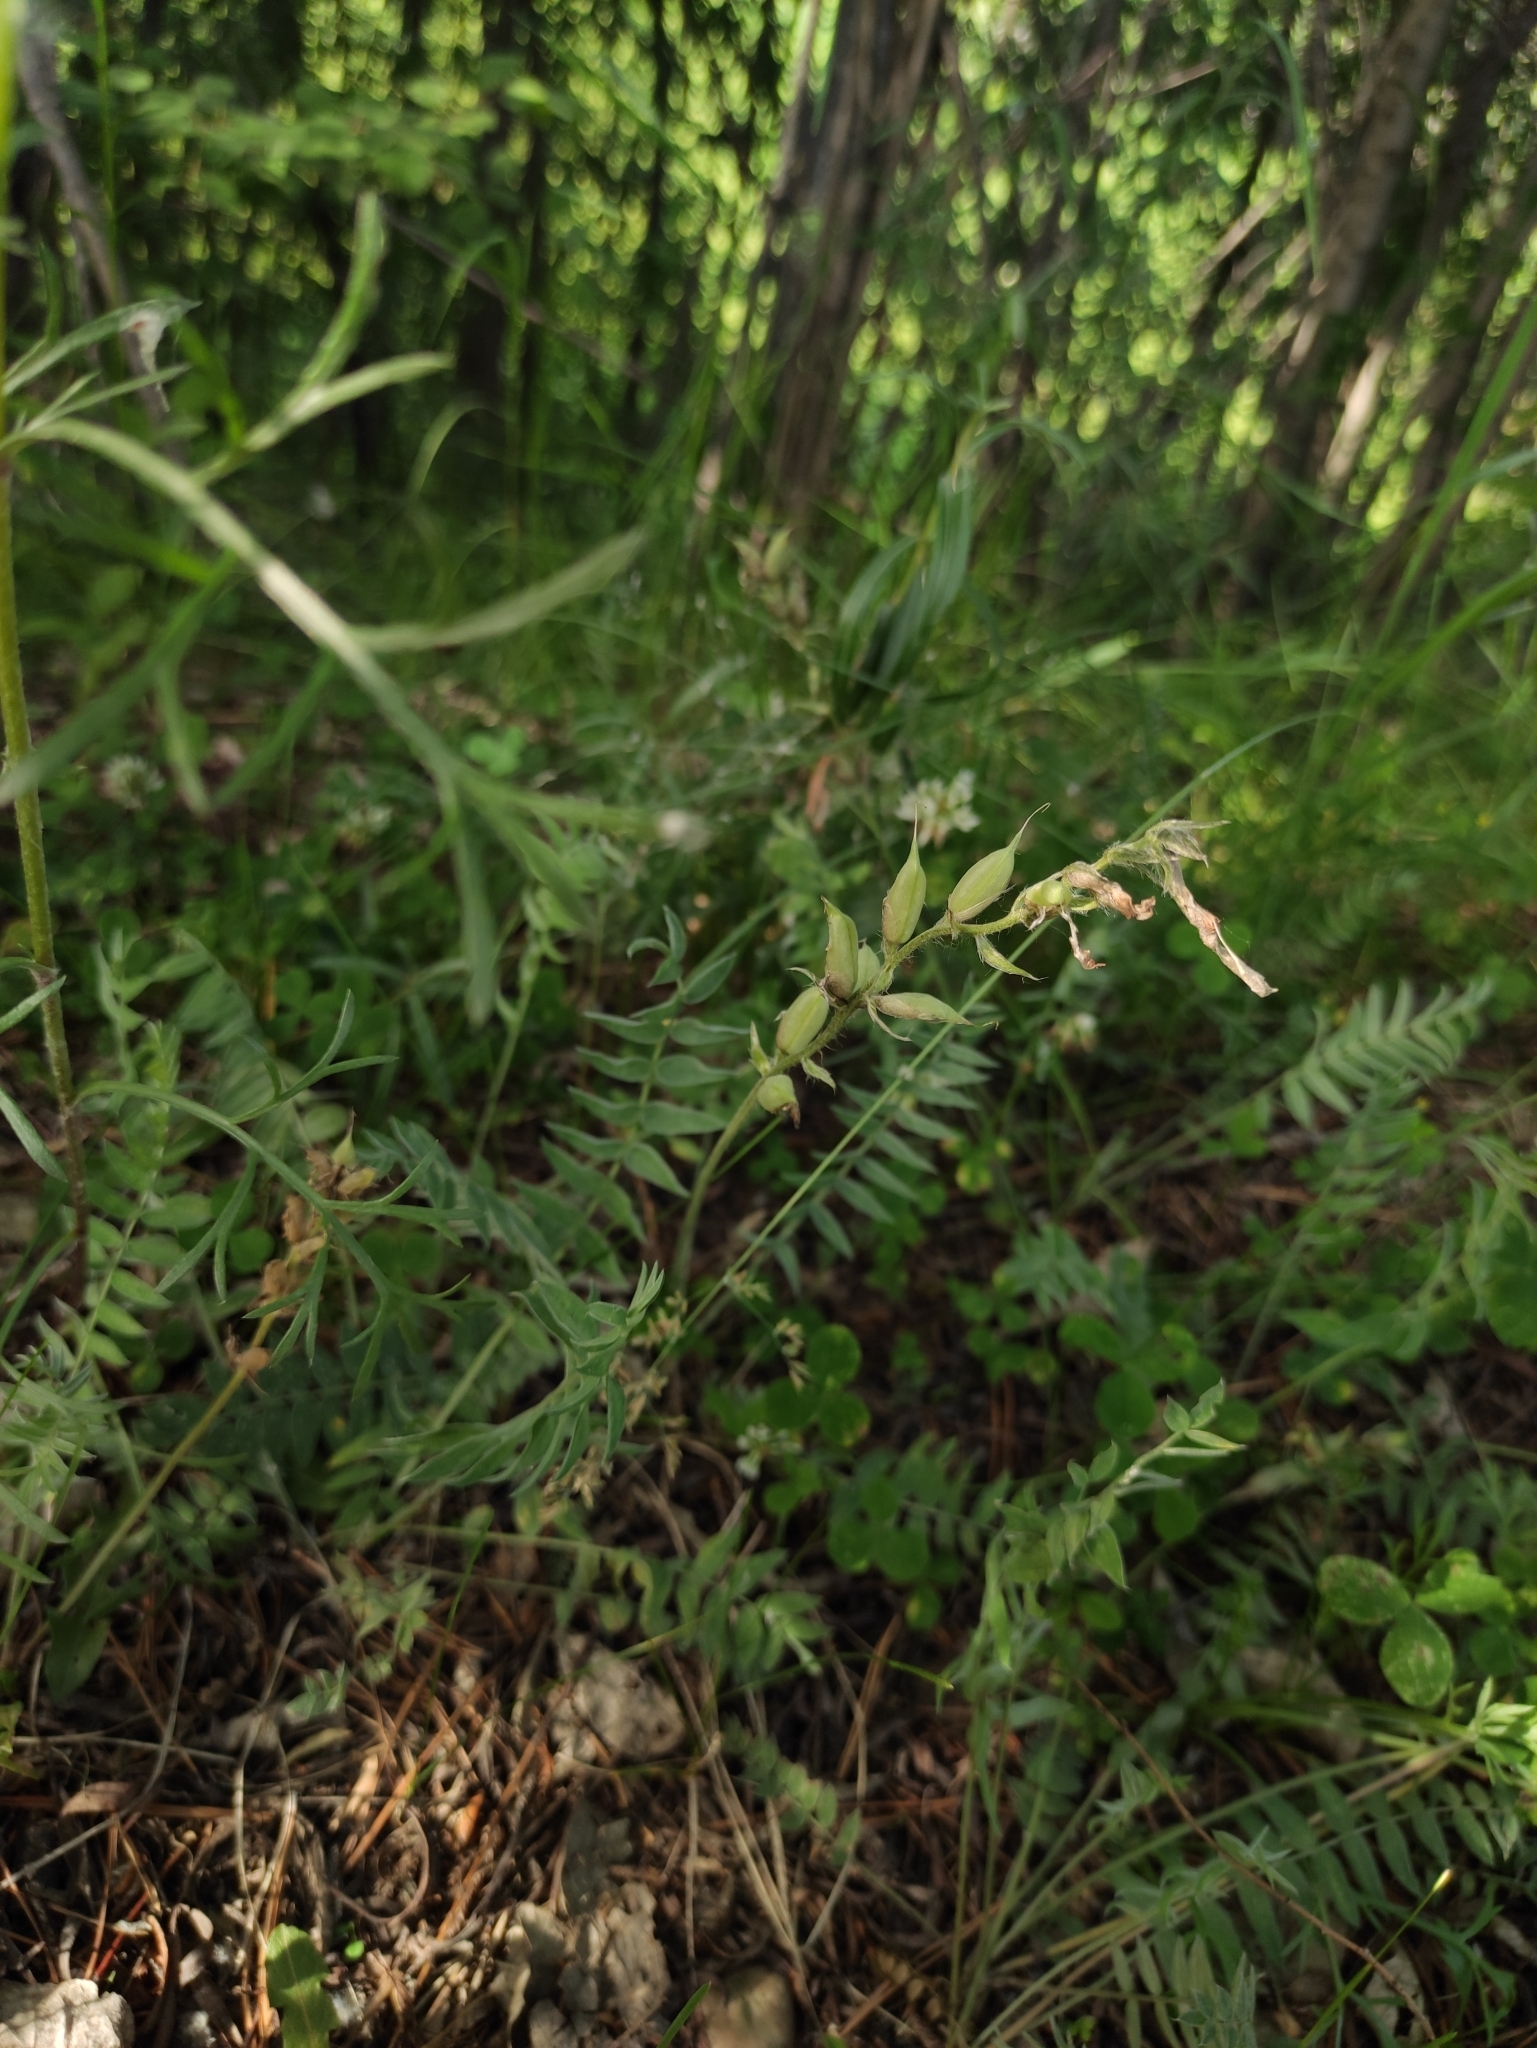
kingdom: Plantae
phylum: Tracheophyta
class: Magnoliopsida
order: Fabales
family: Fabaceae
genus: Oxytropis
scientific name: Oxytropis strobilacea
